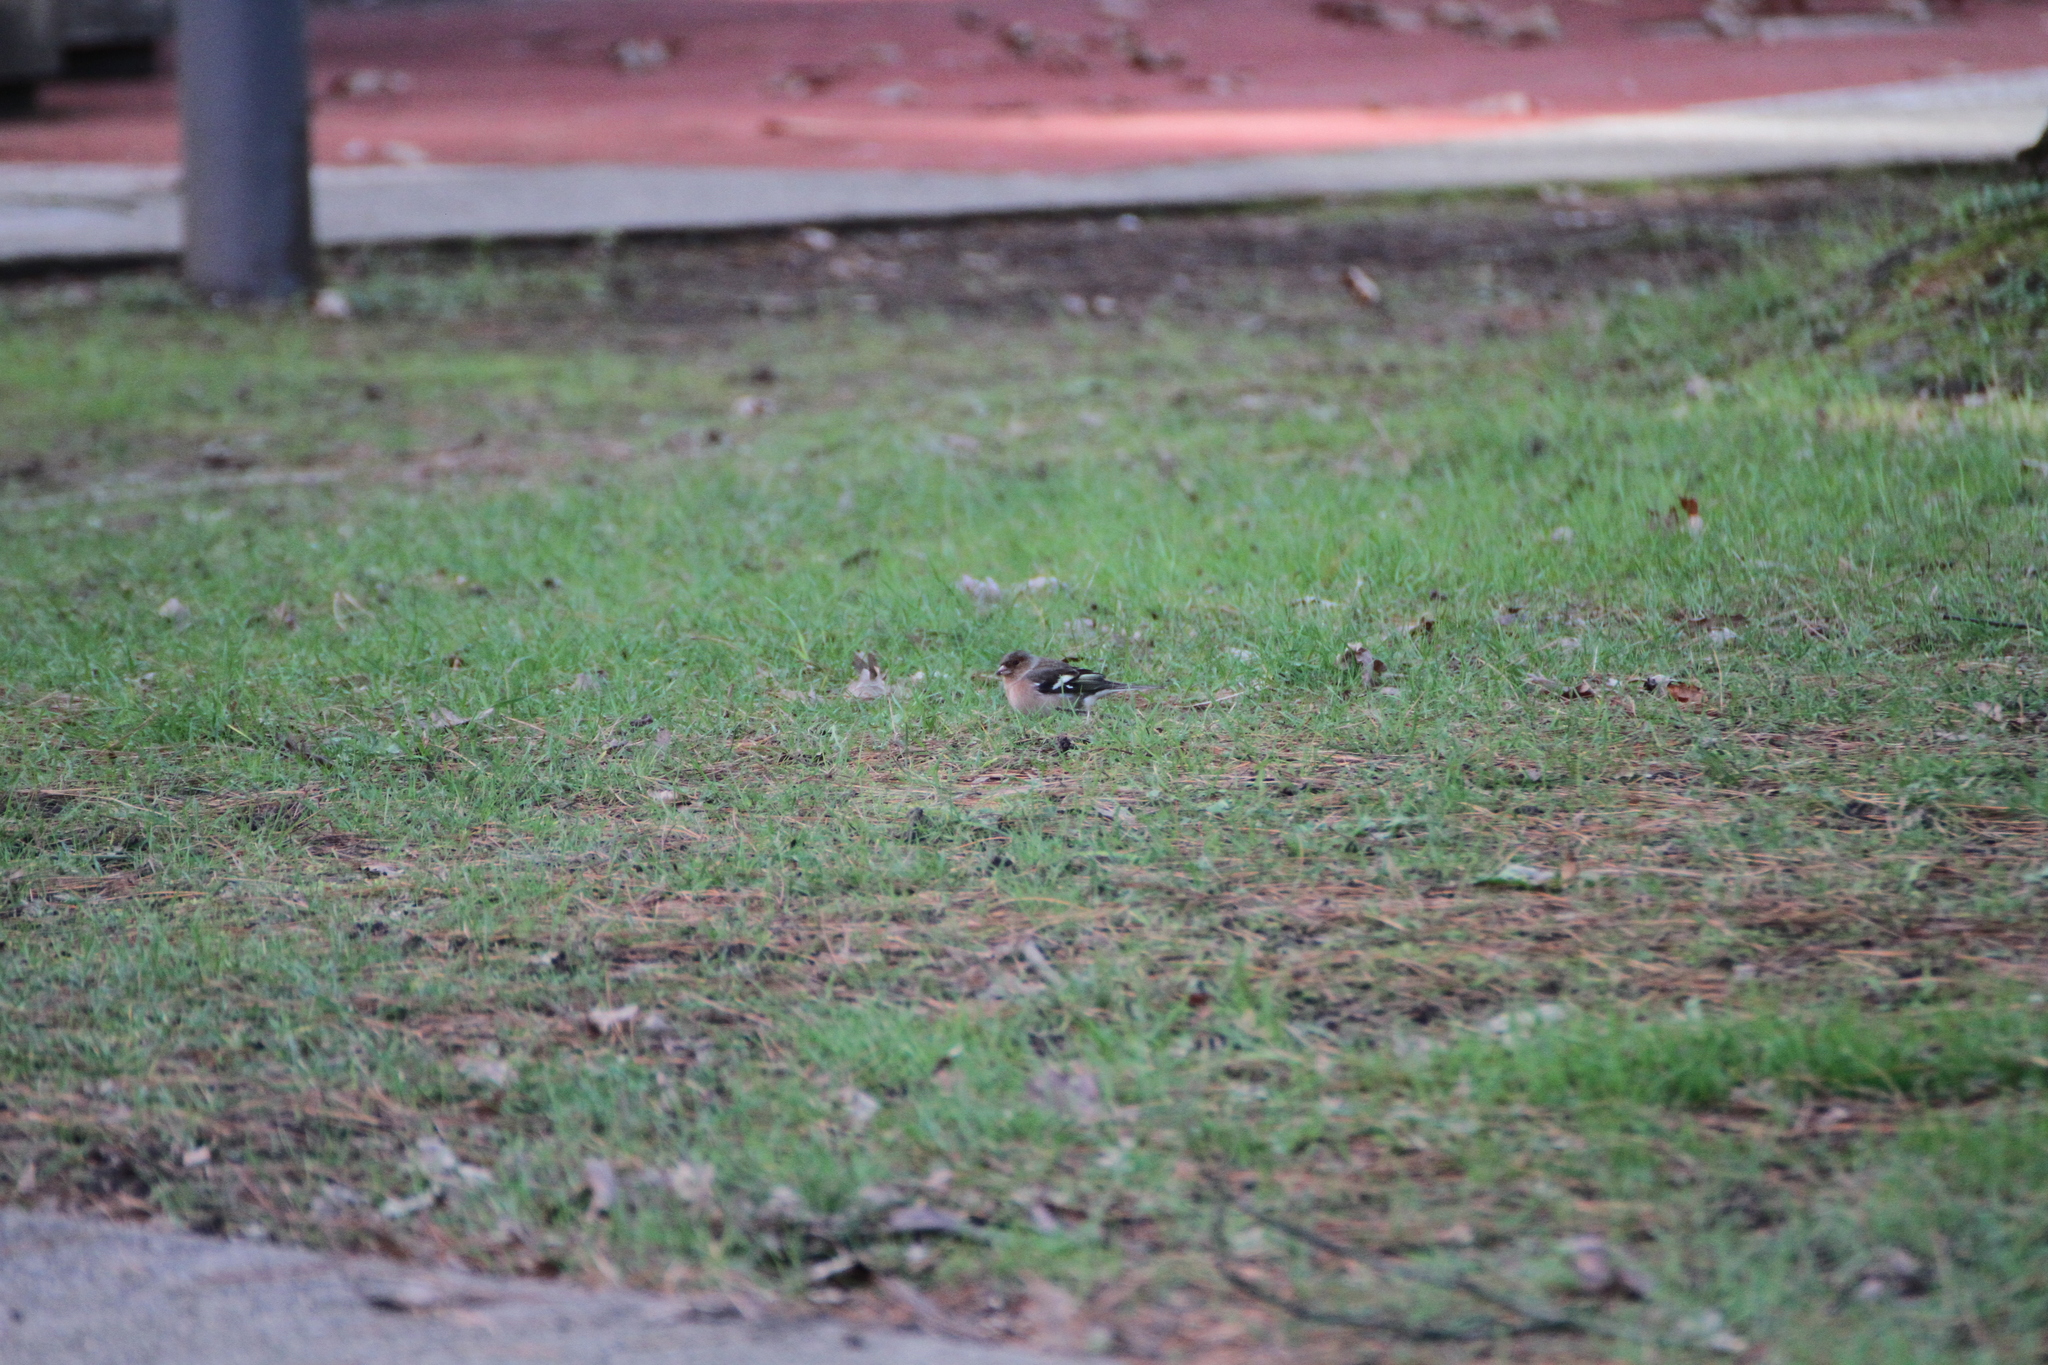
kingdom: Animalia
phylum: Chordata
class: Aves
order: Passeriformes
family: Fringillidae
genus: Fringilla
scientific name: Fringilla coelebs
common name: Common chaffinch
